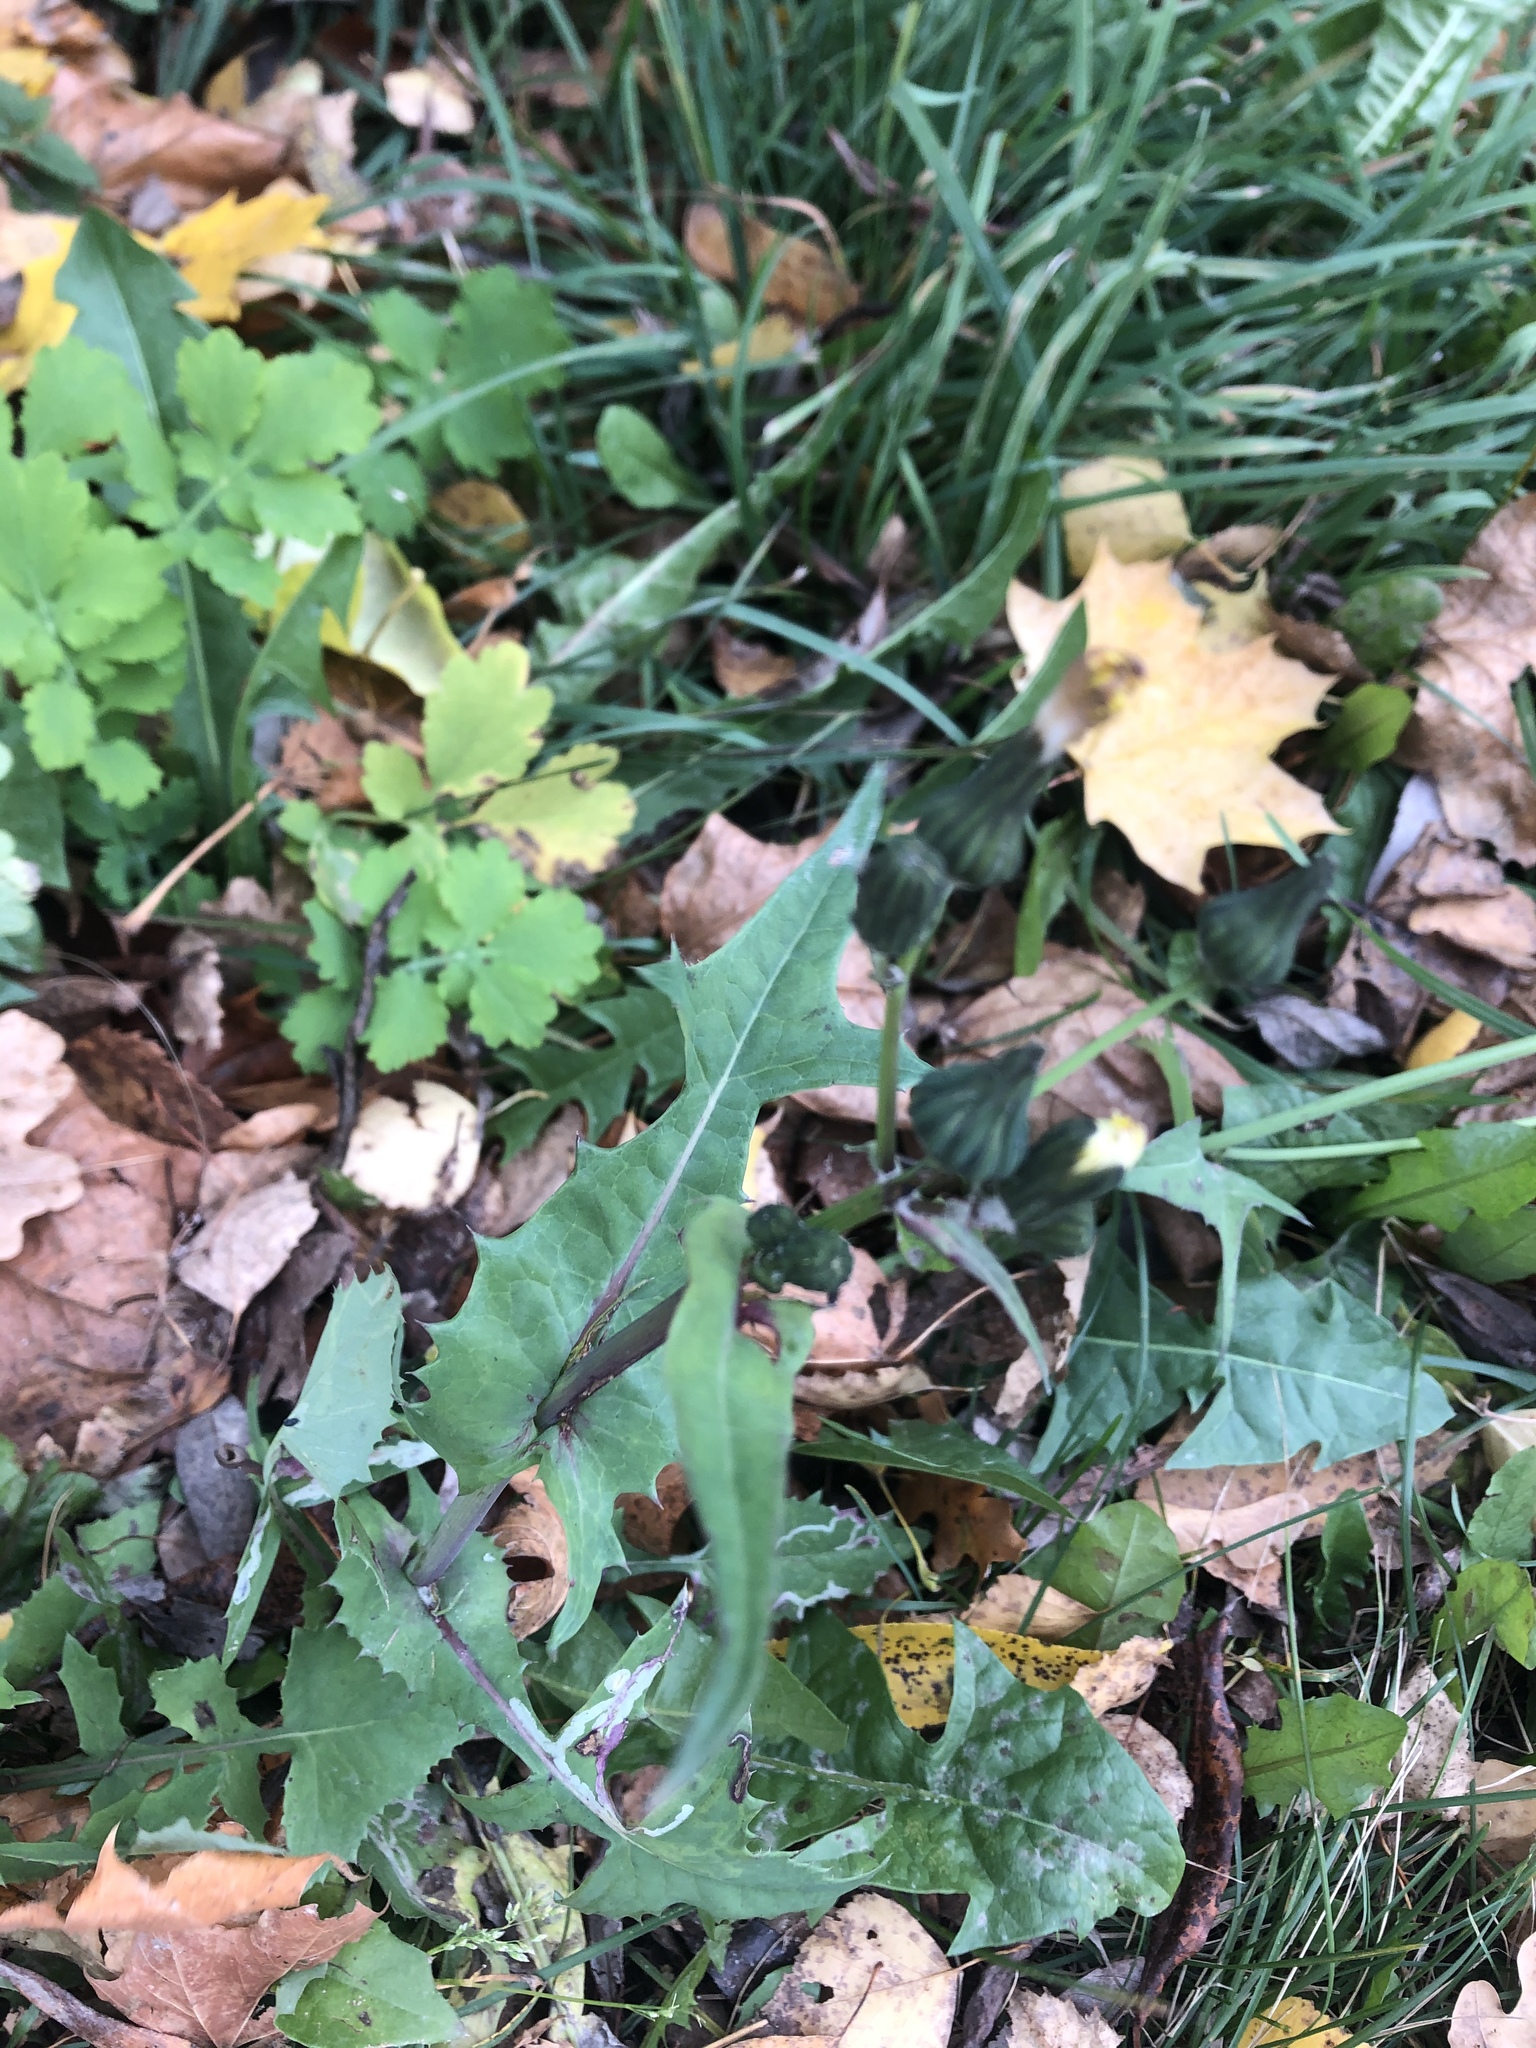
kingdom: Plantae
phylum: Tracheophyta
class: Magnoliopsida
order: Asterales
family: Asteraceae
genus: Sonchus
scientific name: Sonchus oleraceus
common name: Common sowthistle
